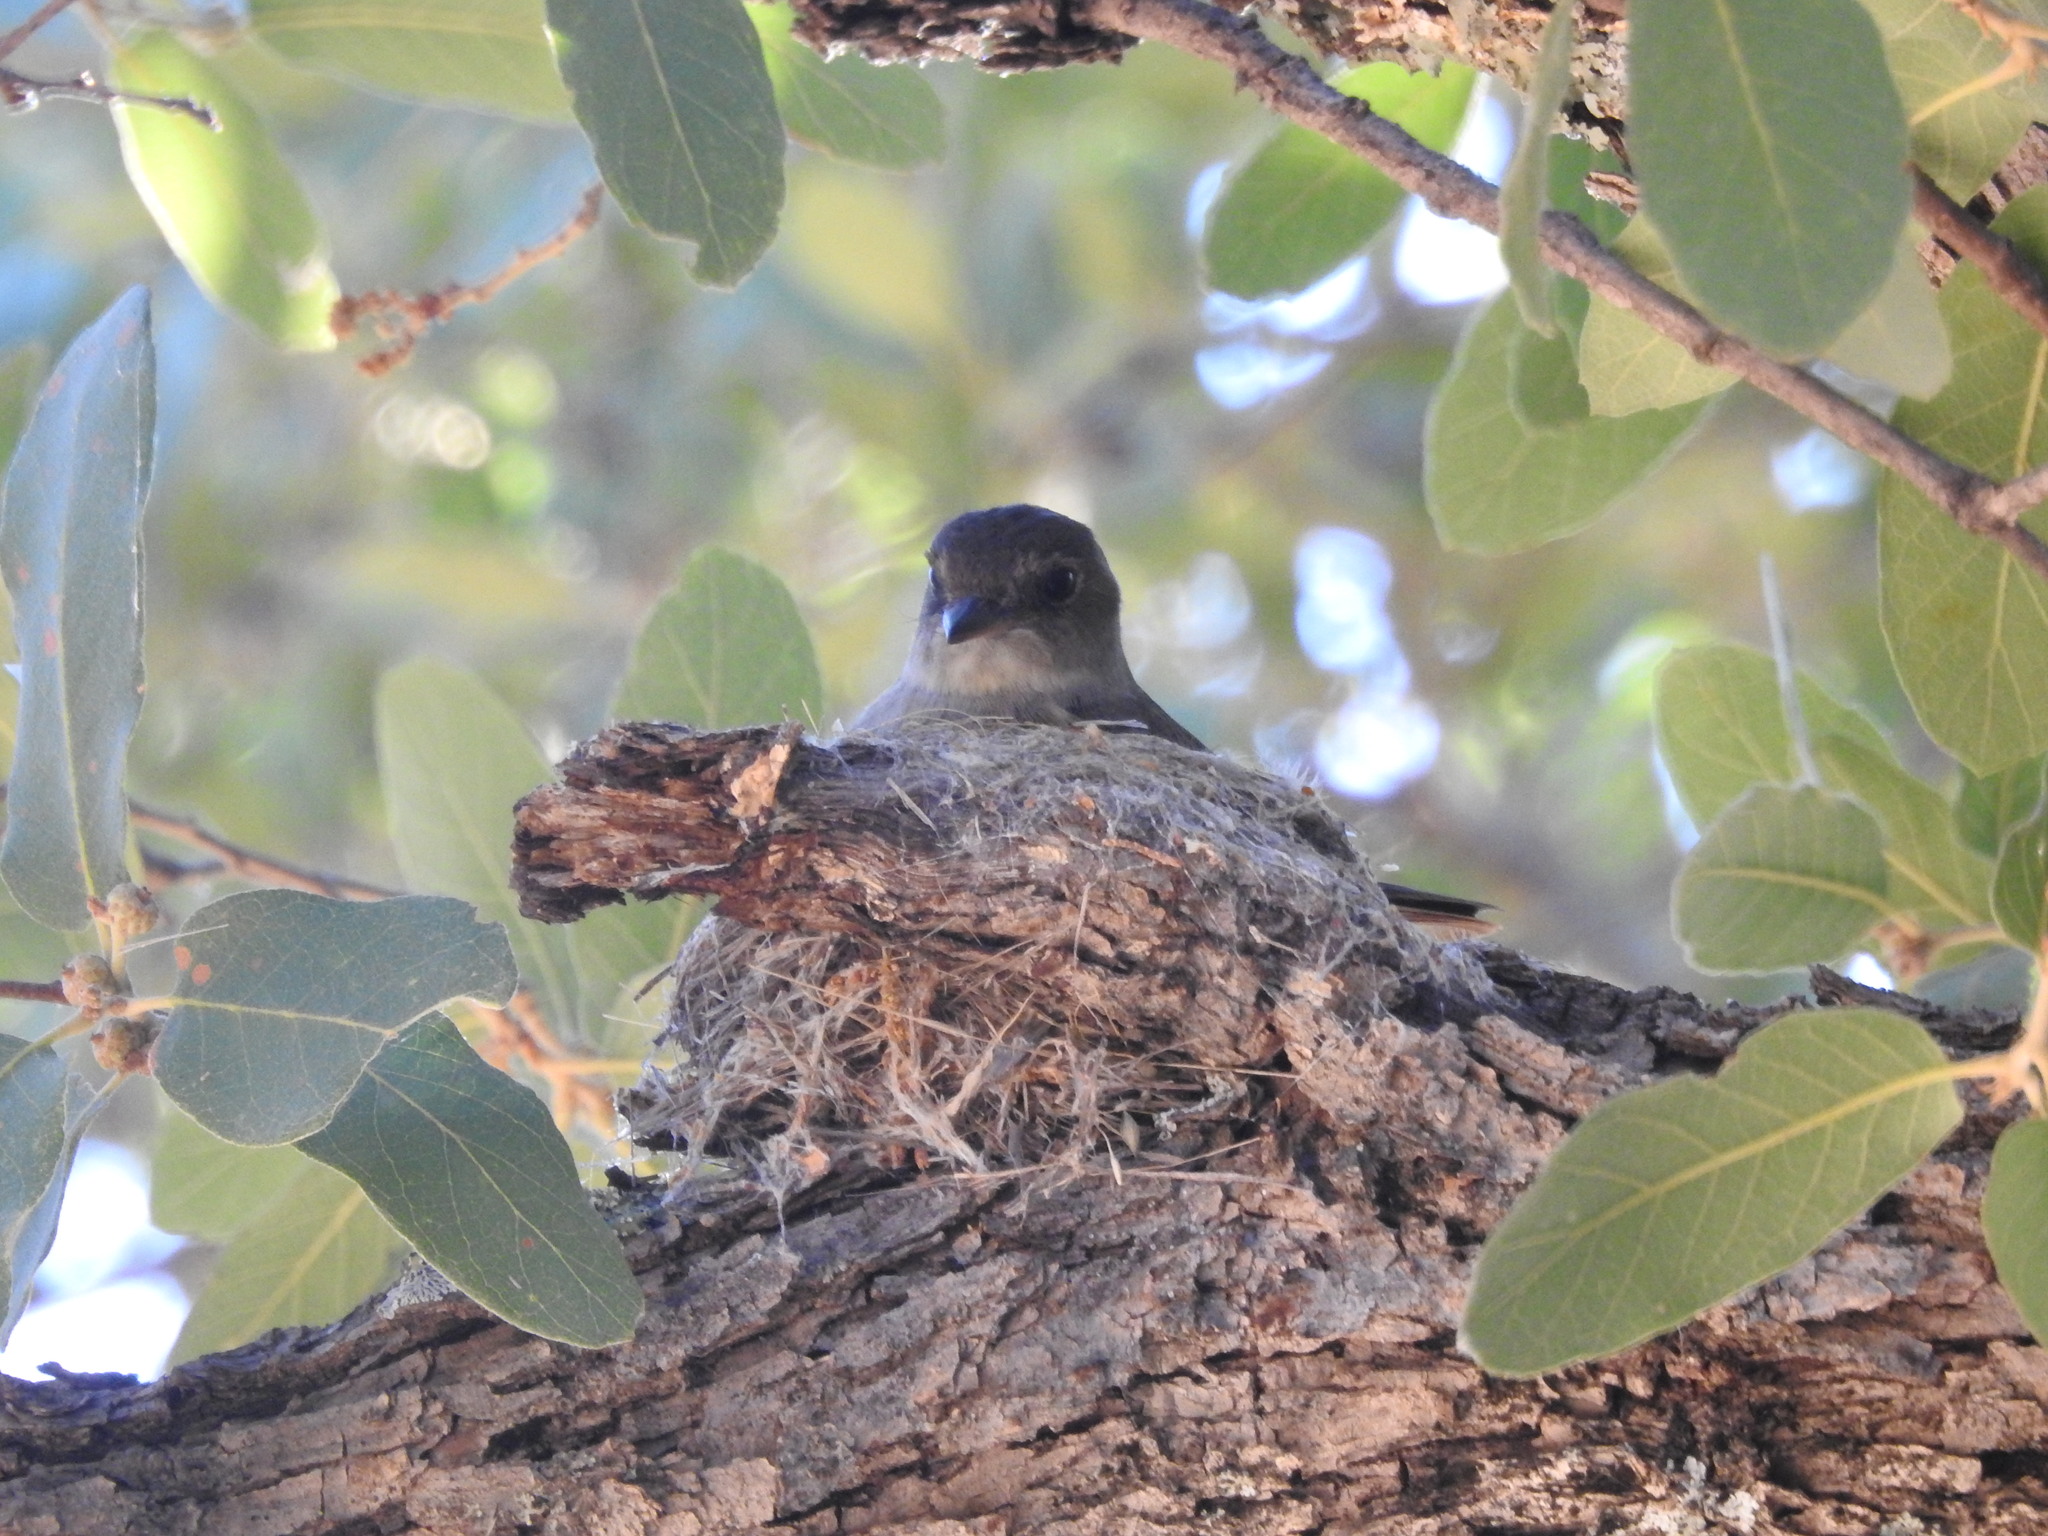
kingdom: Animalia
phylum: Chordata
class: Aves
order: Passeriformes
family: Tyrannidae
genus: Contopus
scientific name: Contopus sordidulus
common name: Western wood-pewee
